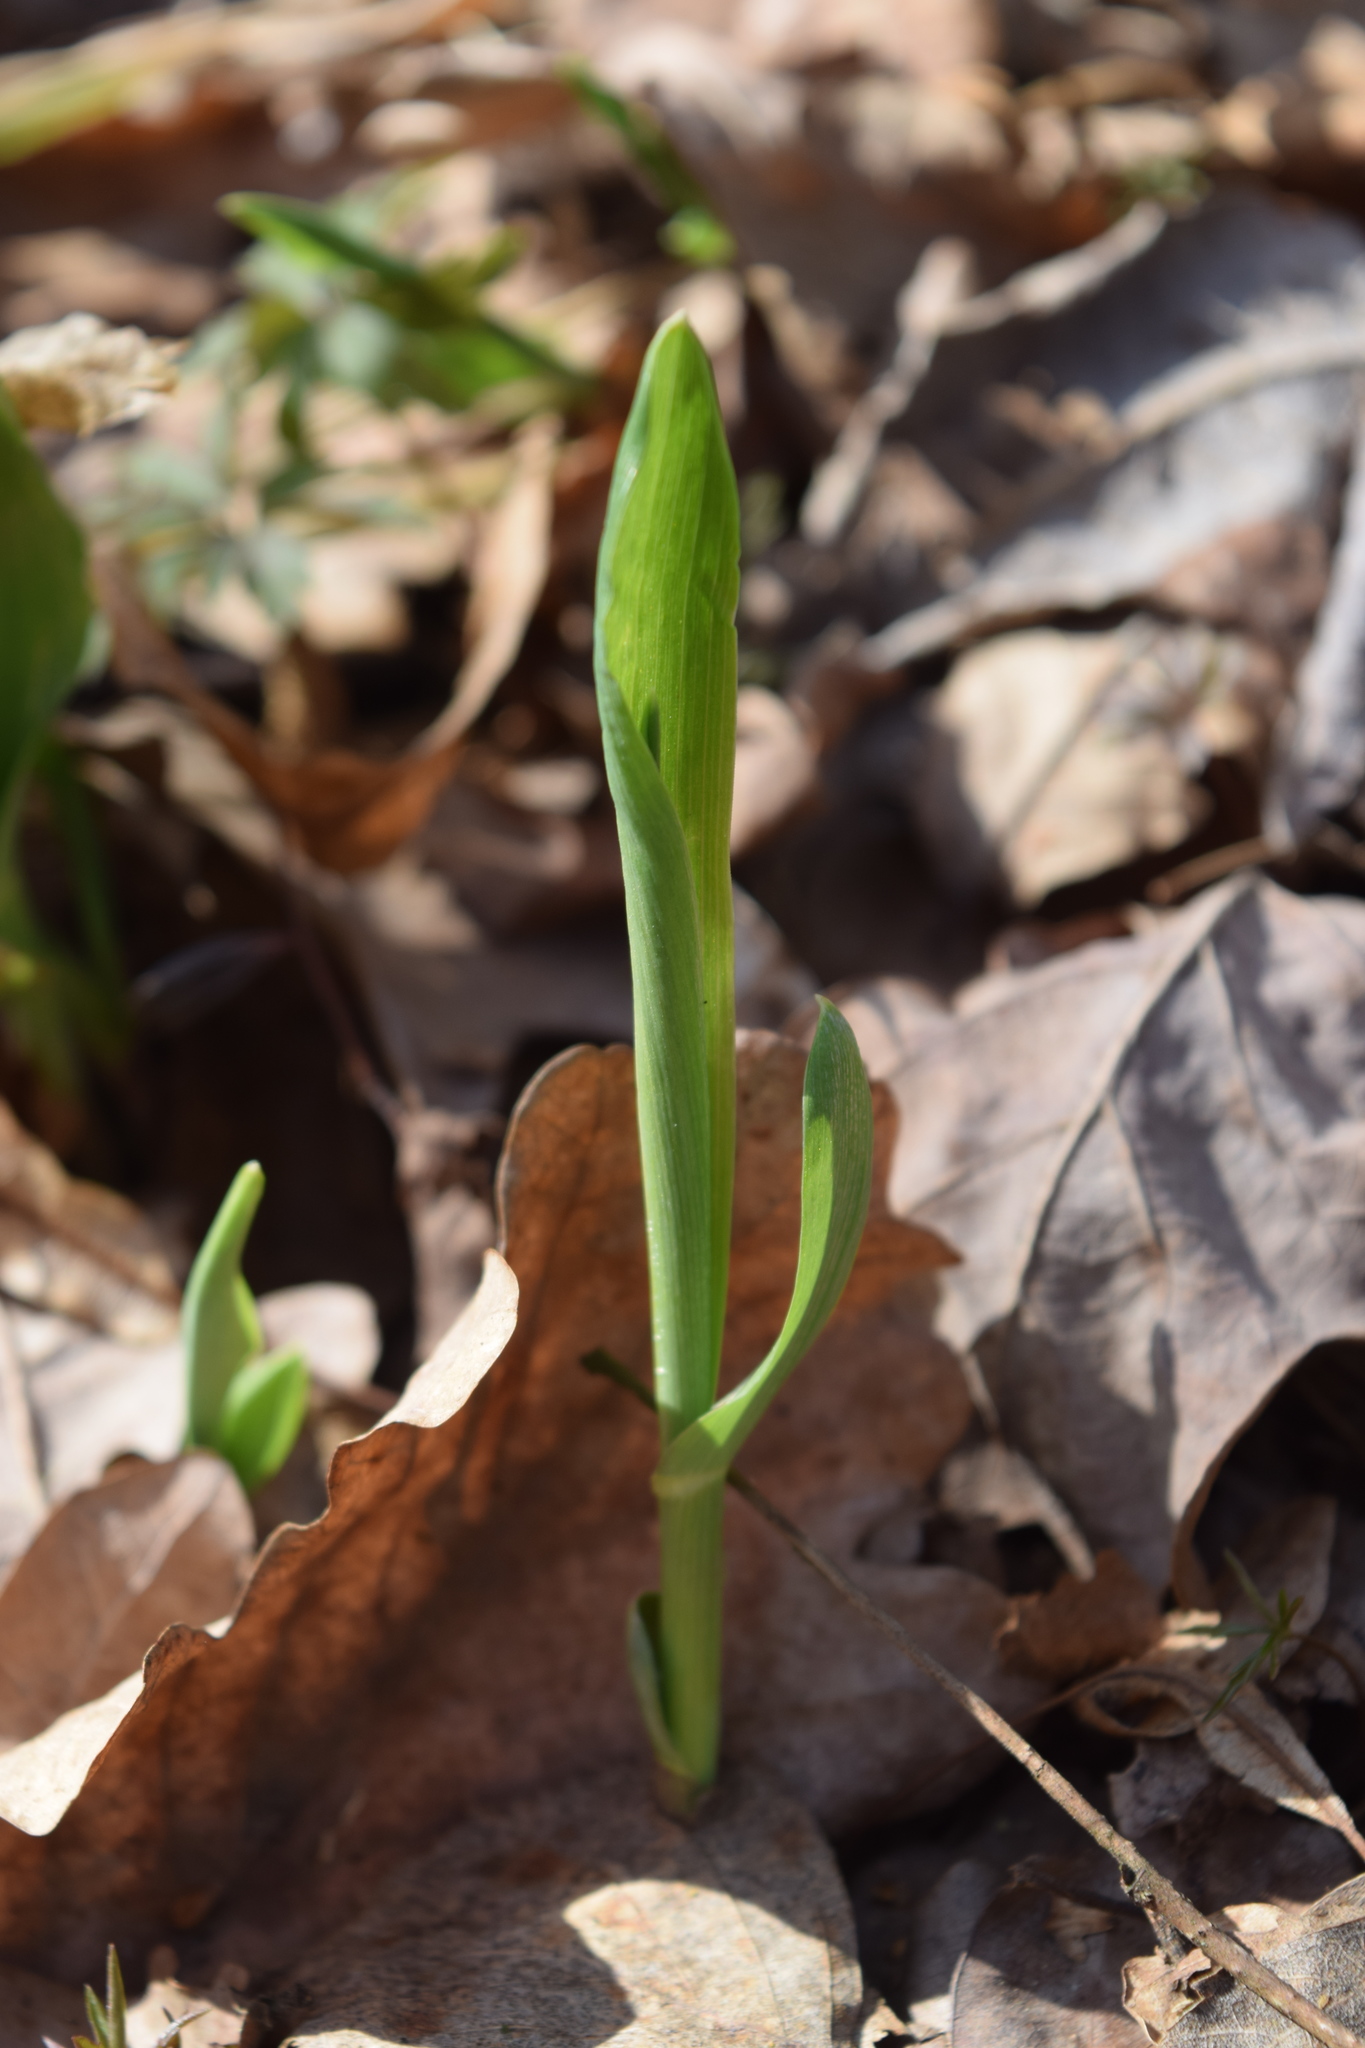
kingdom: Plantae
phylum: Tracheophyta
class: Liliopsida
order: Poales
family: Poaceae
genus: Milium
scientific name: Milium effusum
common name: Wood millet
